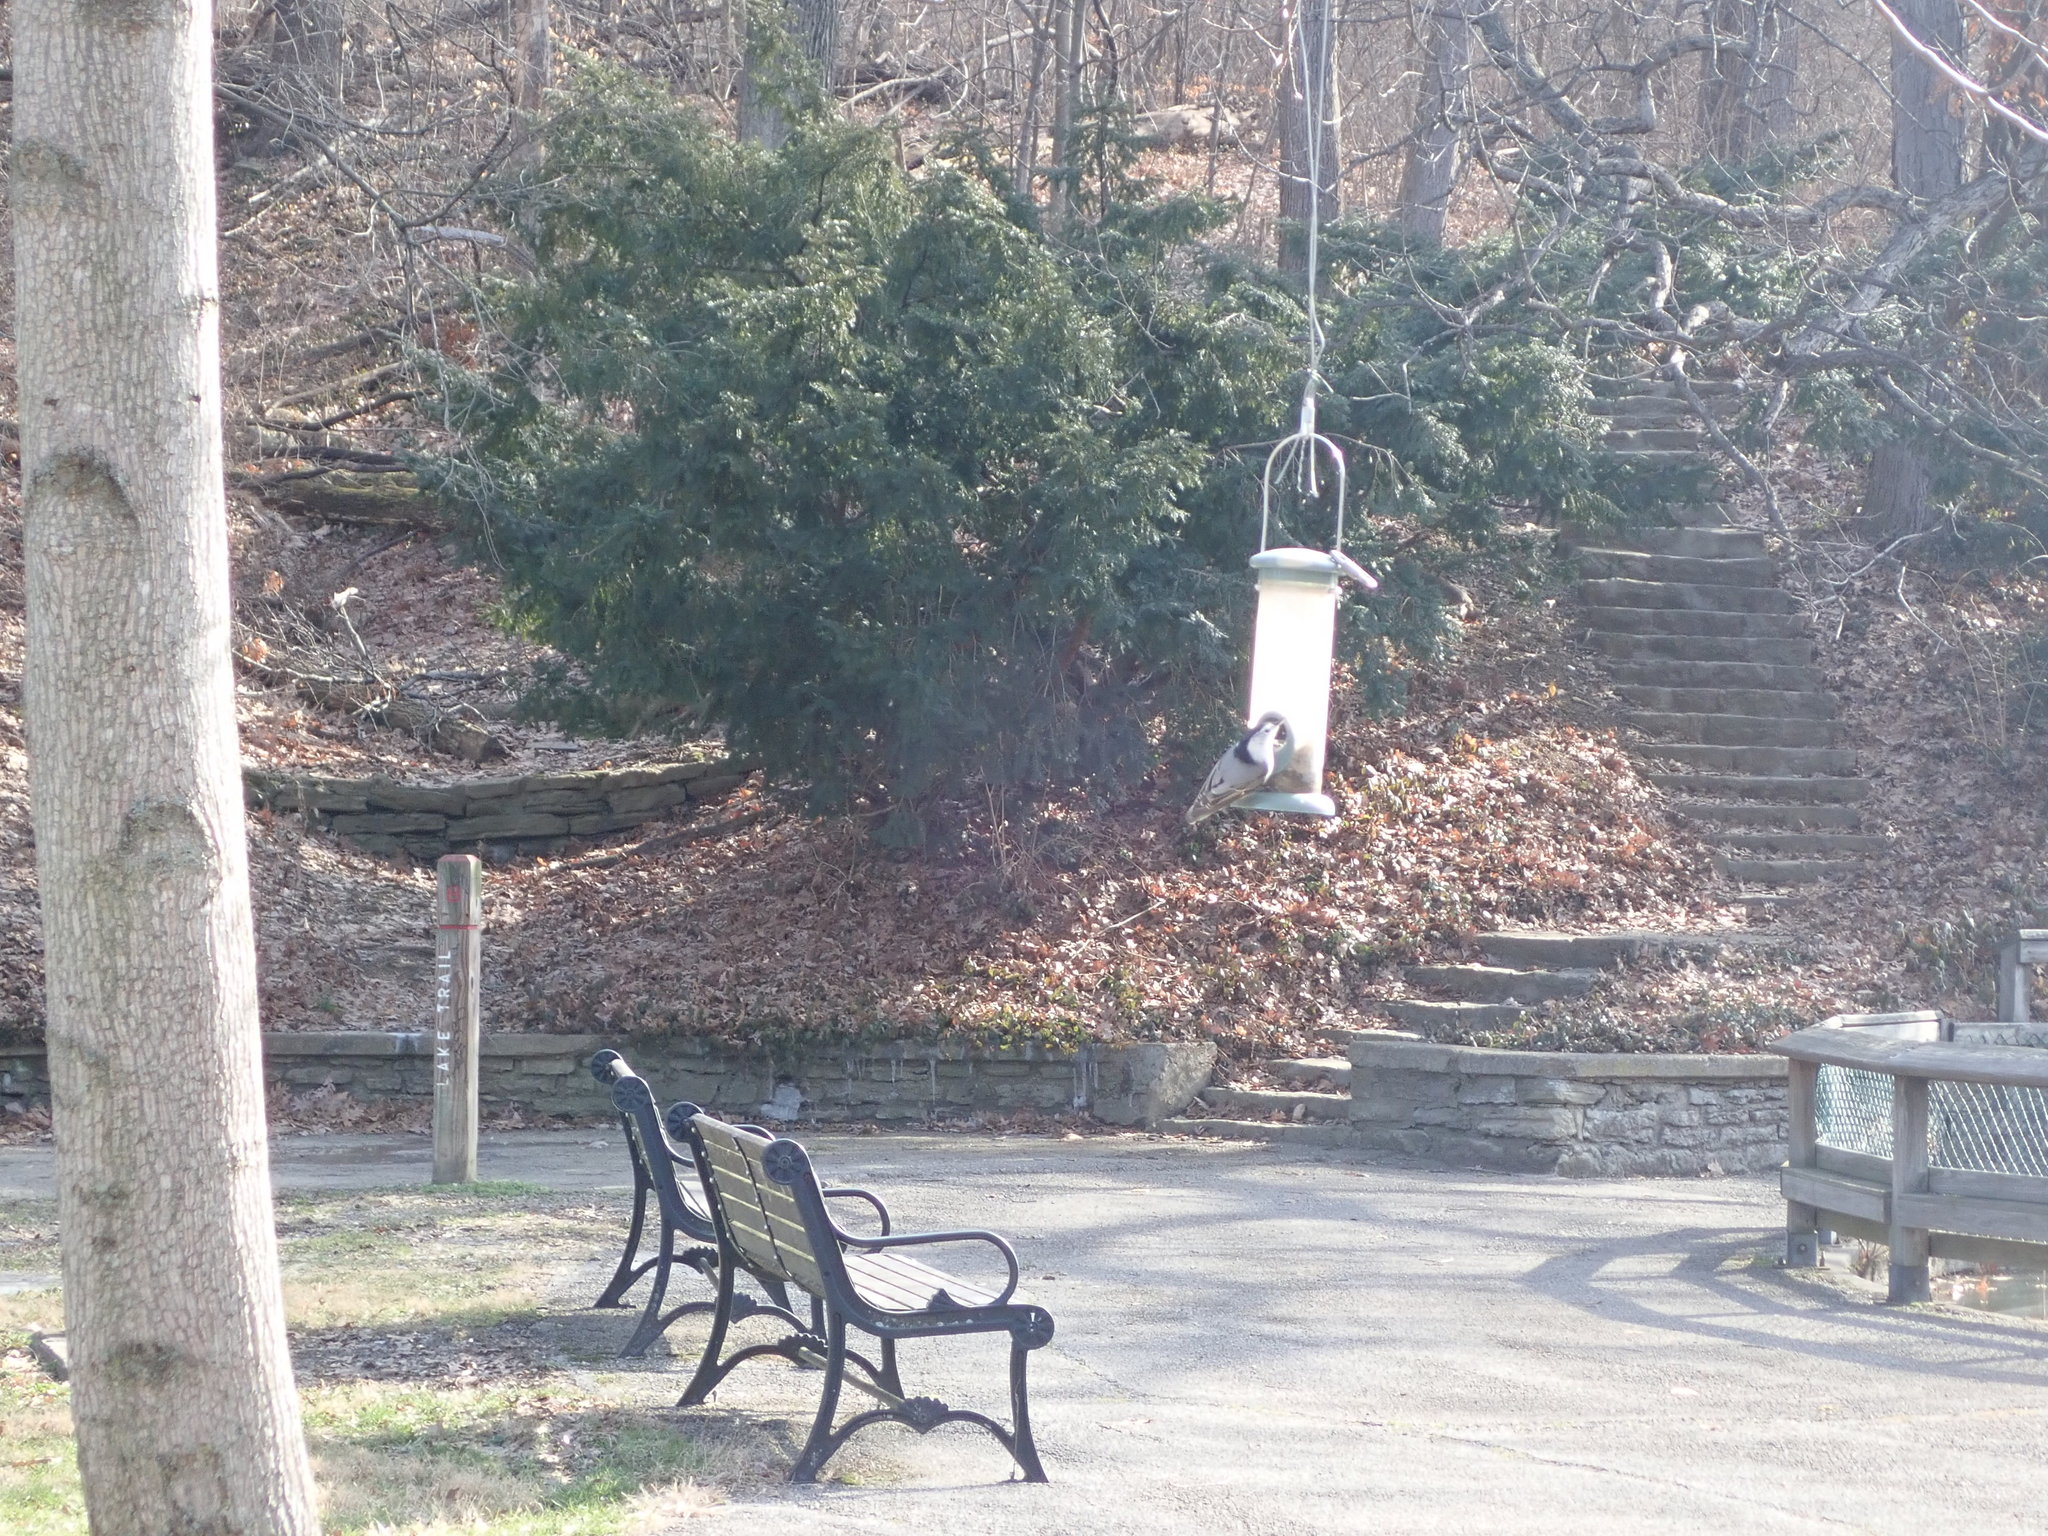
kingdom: Animalia
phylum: Chordata
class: Aves
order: Passeriformes
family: Sittidae
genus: Sitta
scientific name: Sitta carolinensis
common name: White-breasted nuthatch
